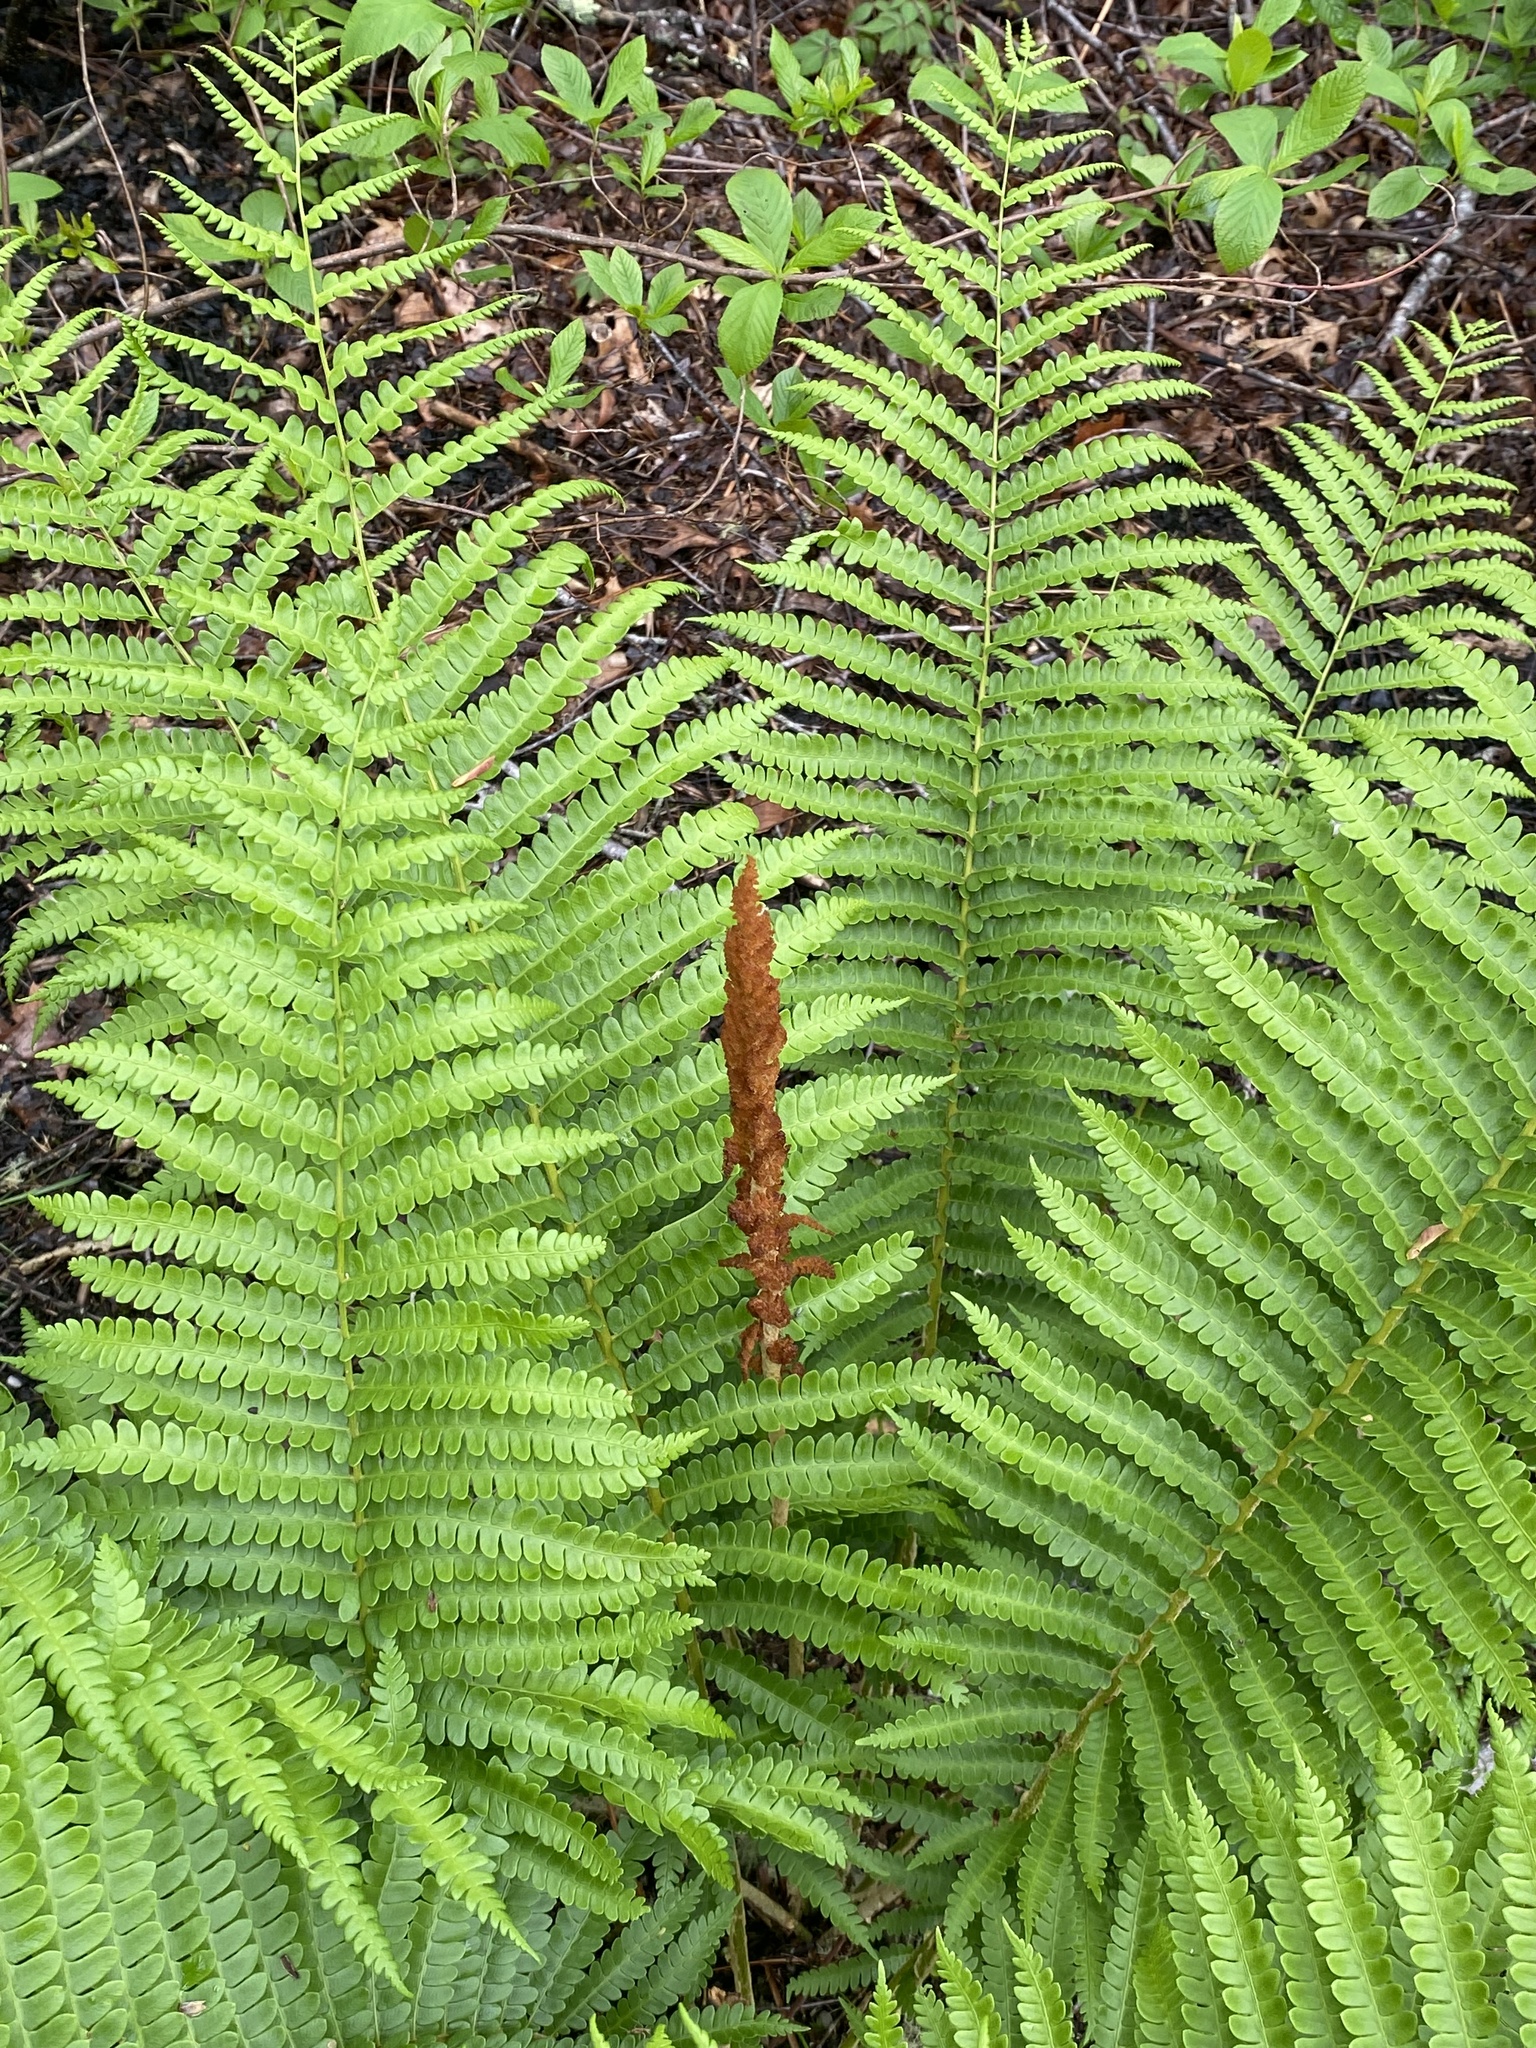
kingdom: Plantae
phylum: Tracheophyta
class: Polypodiopsida
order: Osmundales
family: Osmundaceae
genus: Osmundastrum
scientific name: Osmundastrum cinnamomeum
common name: Cinnamon fern
